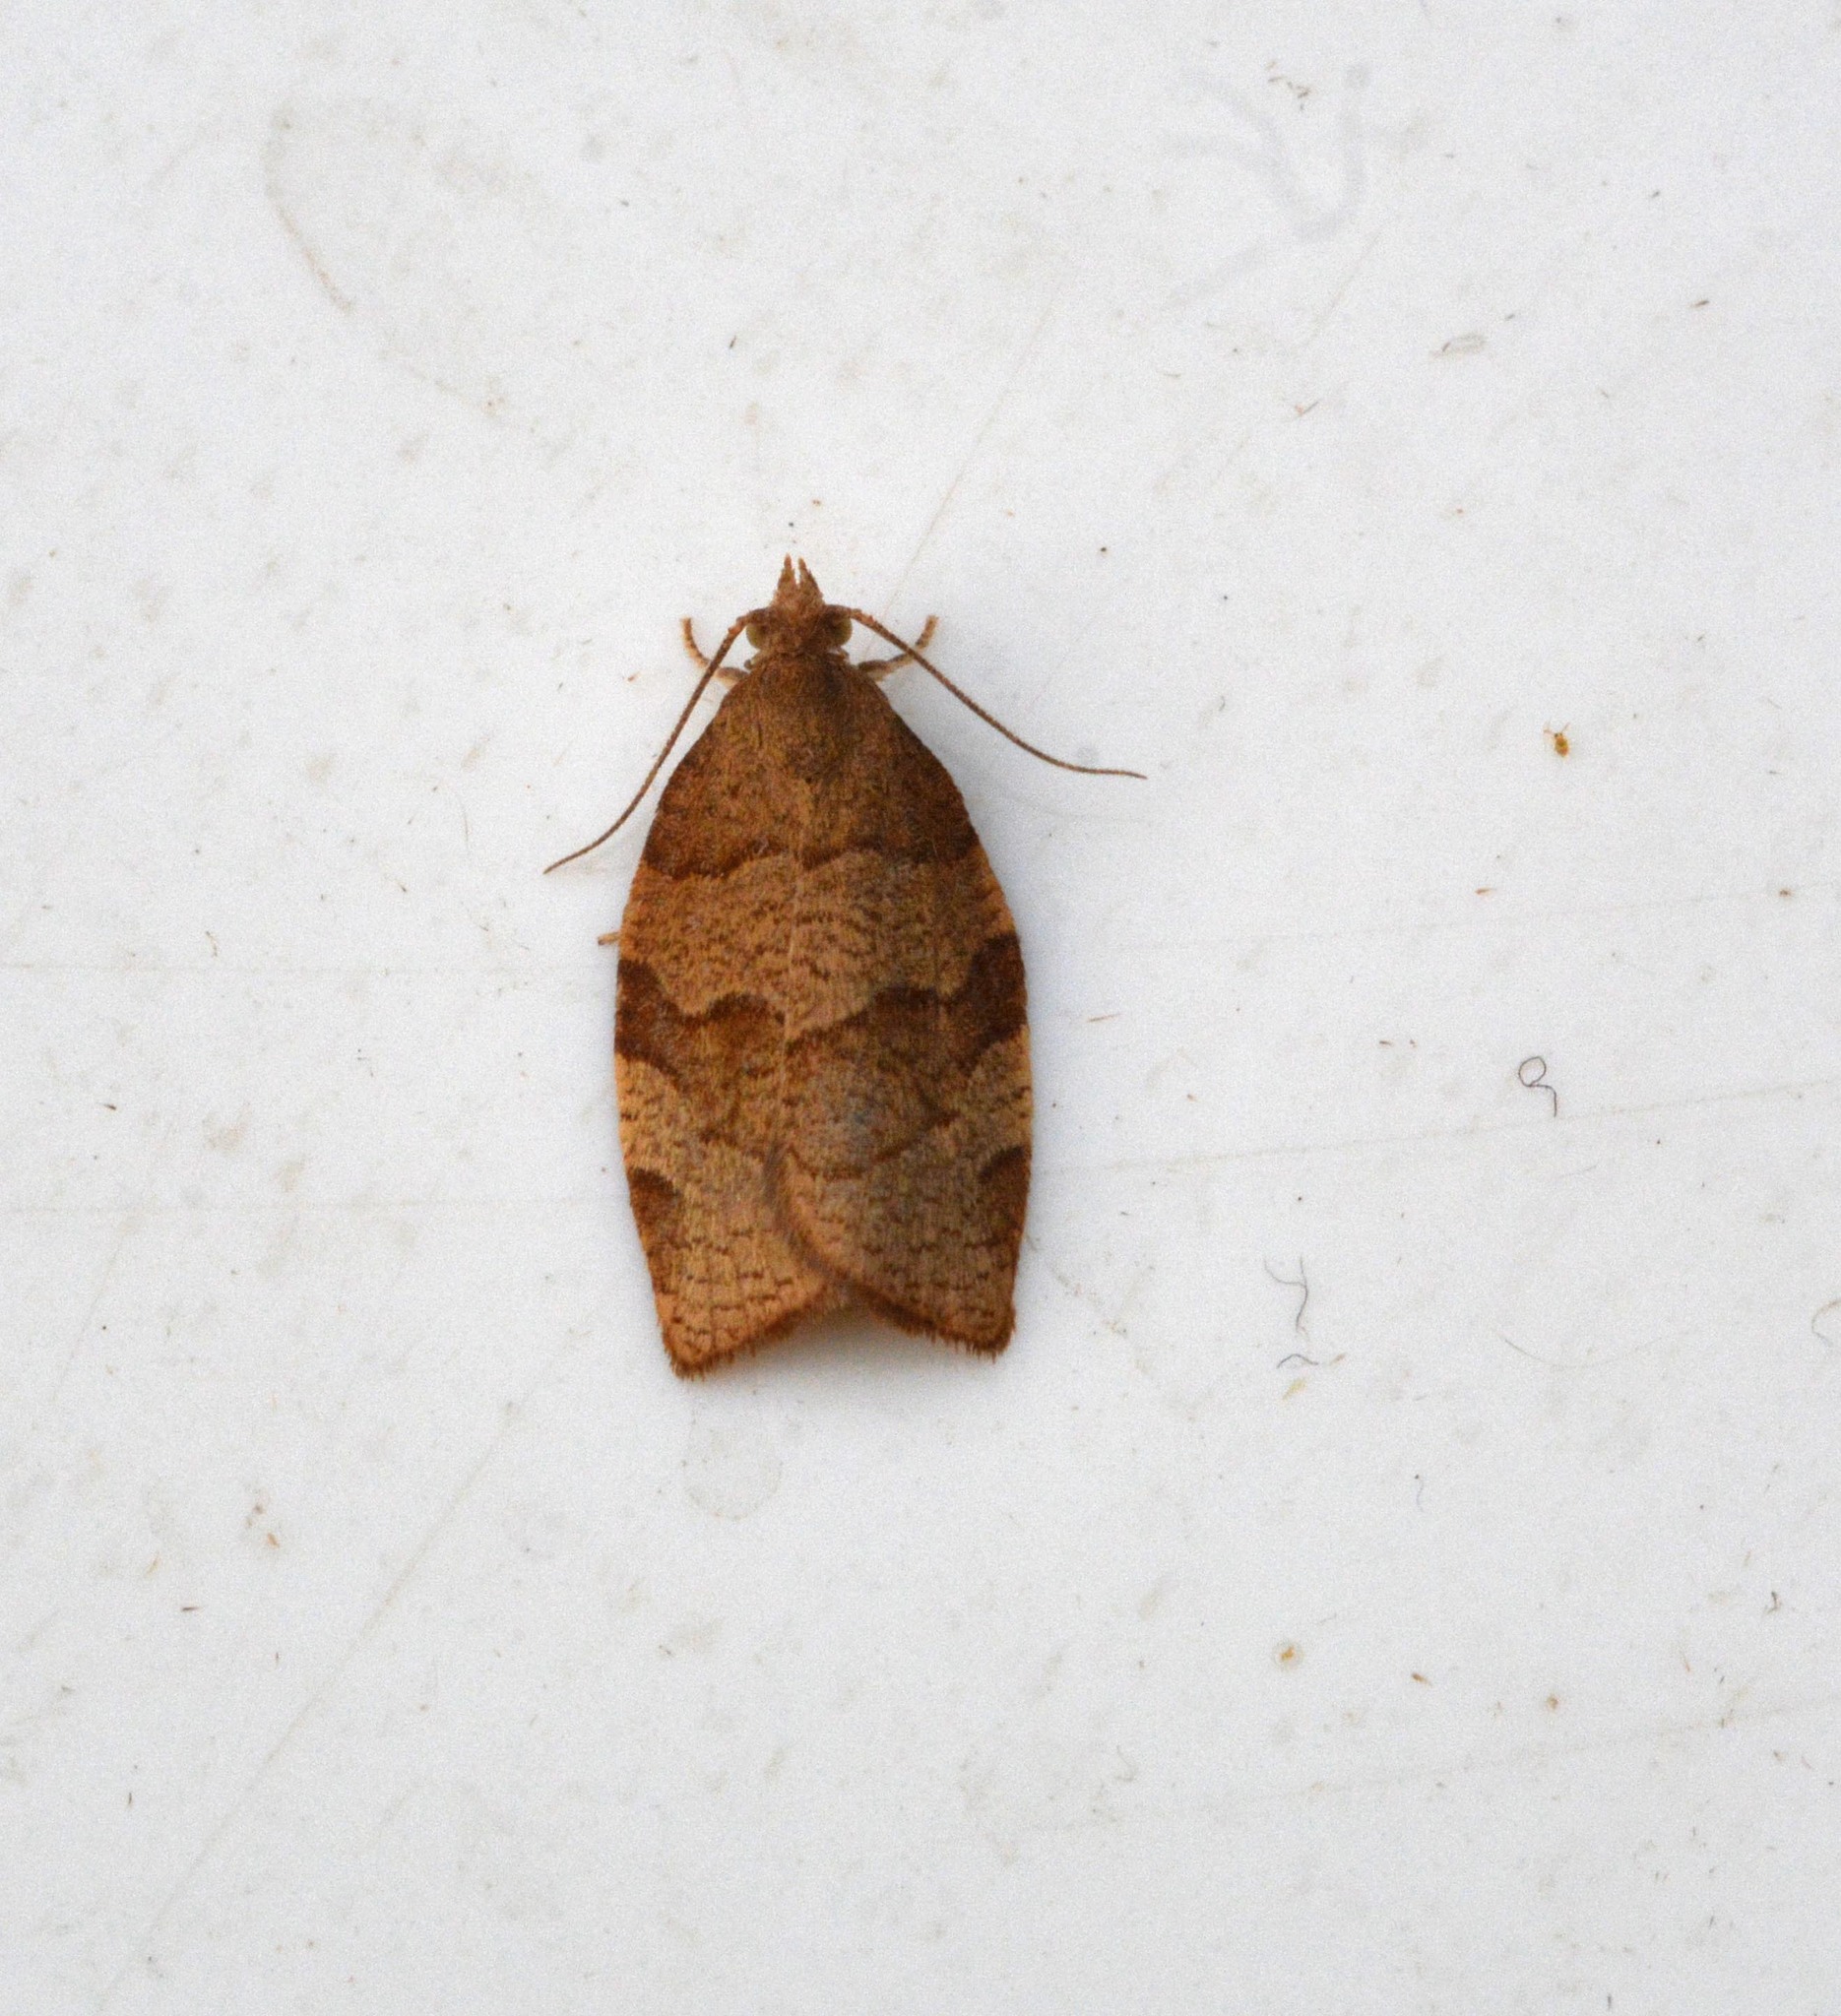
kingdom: Animalia
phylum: Arthropoda
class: Insecta
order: Lepidoptera
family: Tortricidae
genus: Pandemis
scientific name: Pandemis heparana
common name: Dark fruit-tree tortrix
